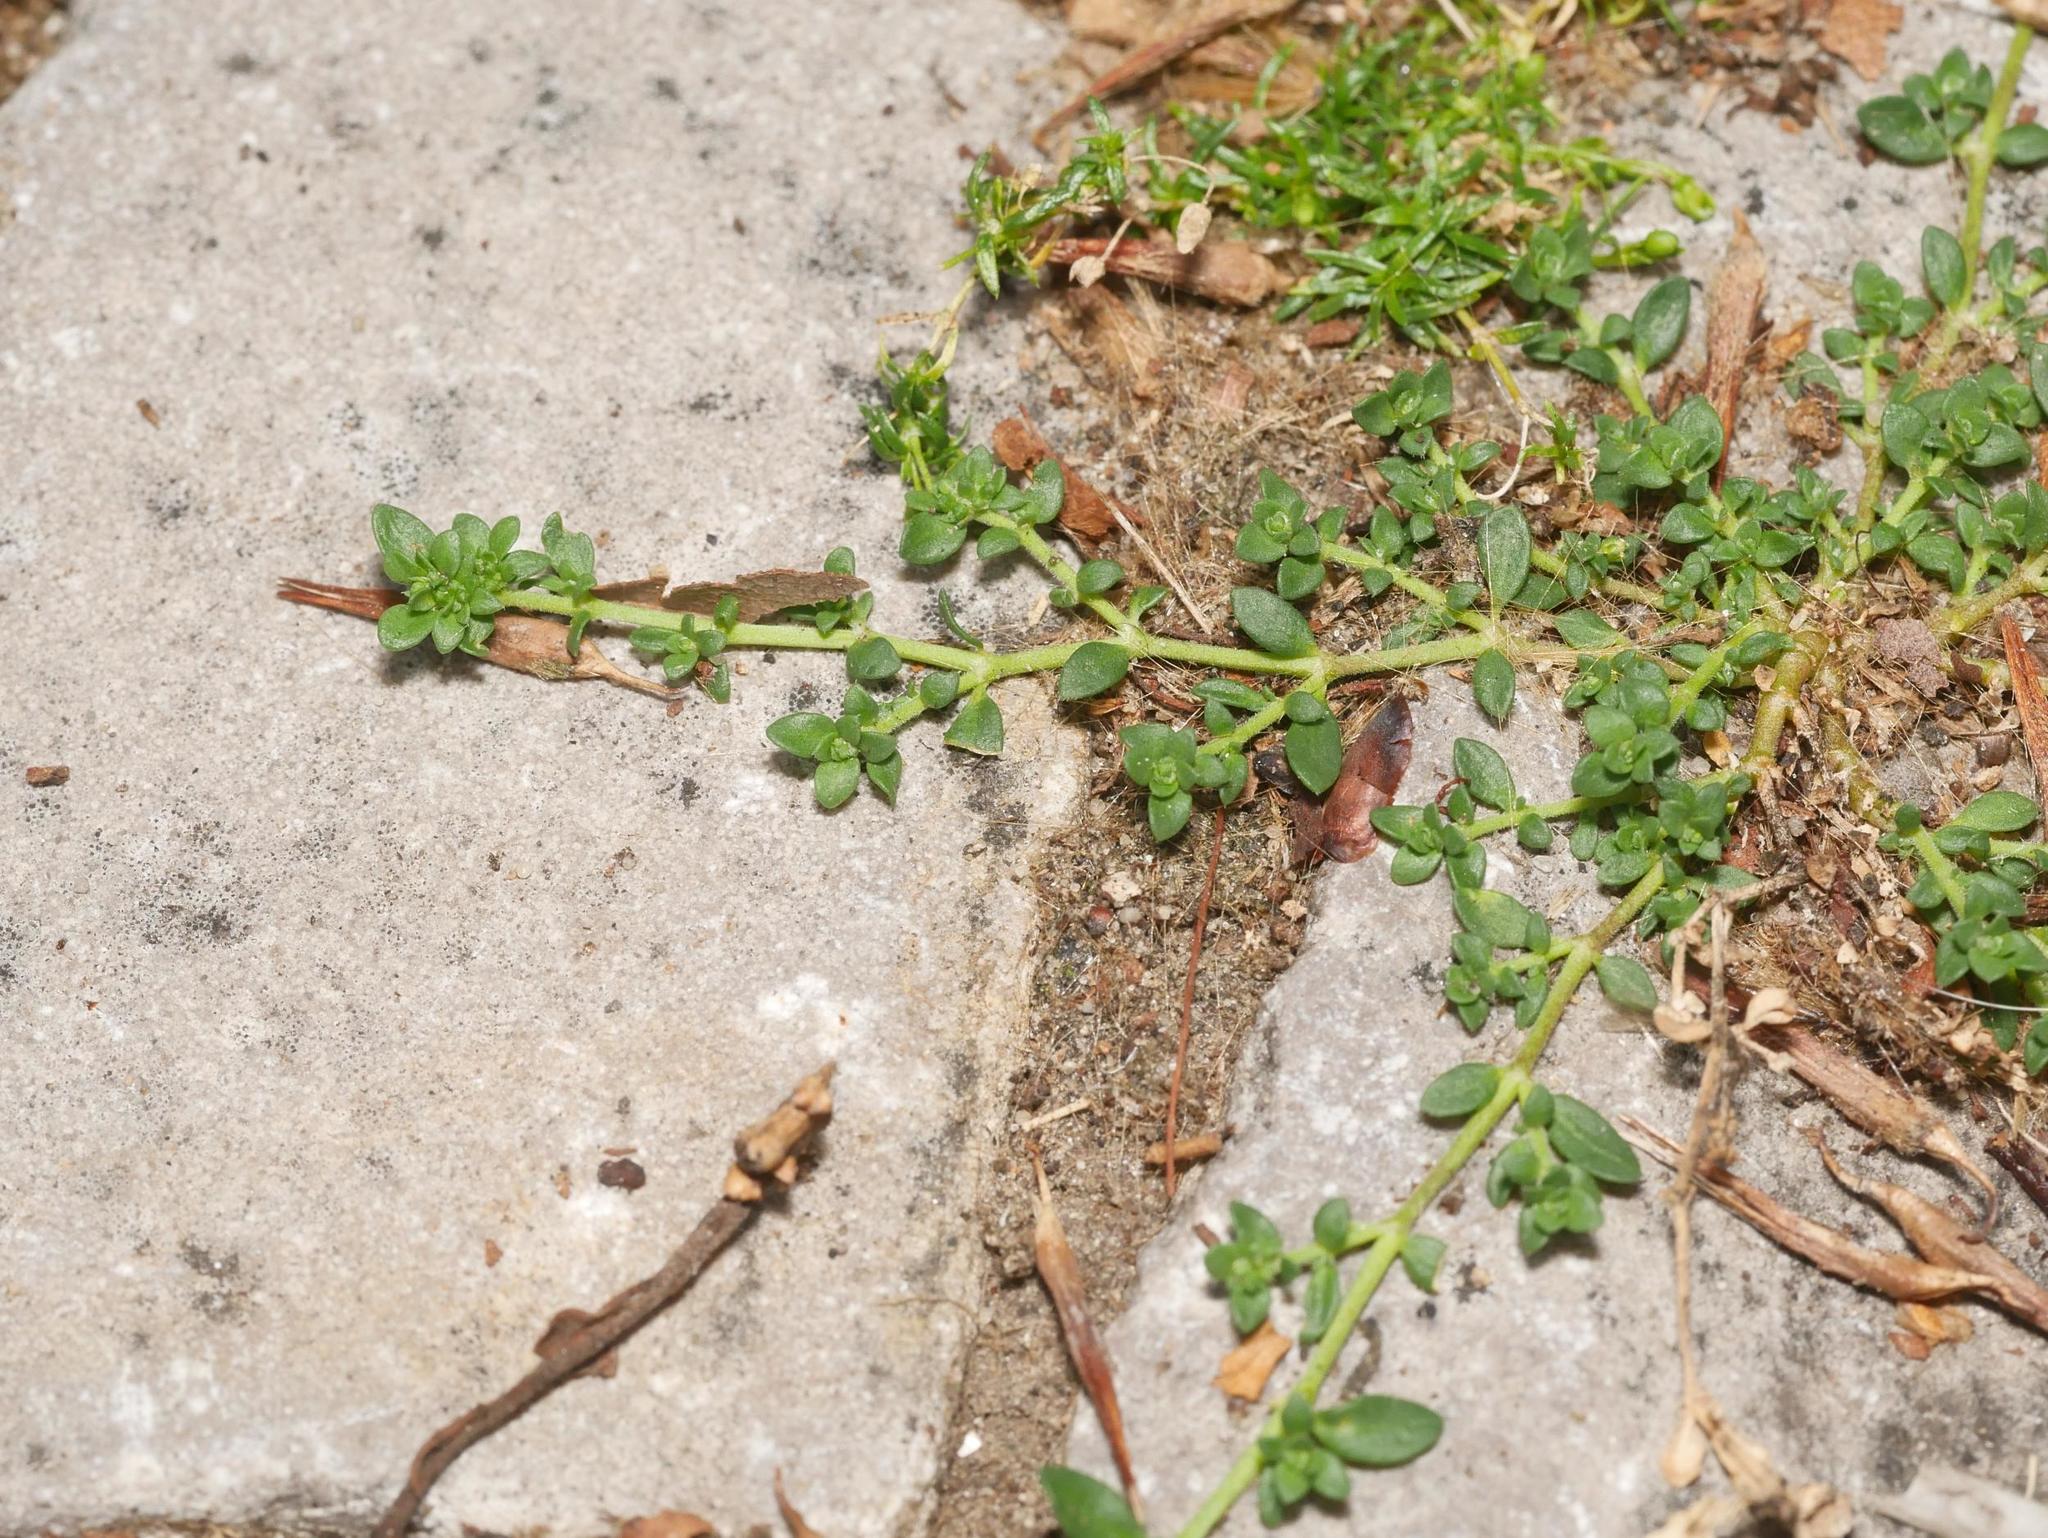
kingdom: Plantae
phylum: Tracheophyta
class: Magnoliopsida
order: Caryophyllales
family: Caryophyllaceae
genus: Herniaria
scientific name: Herniaria glabra
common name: Smooth rupturewort
